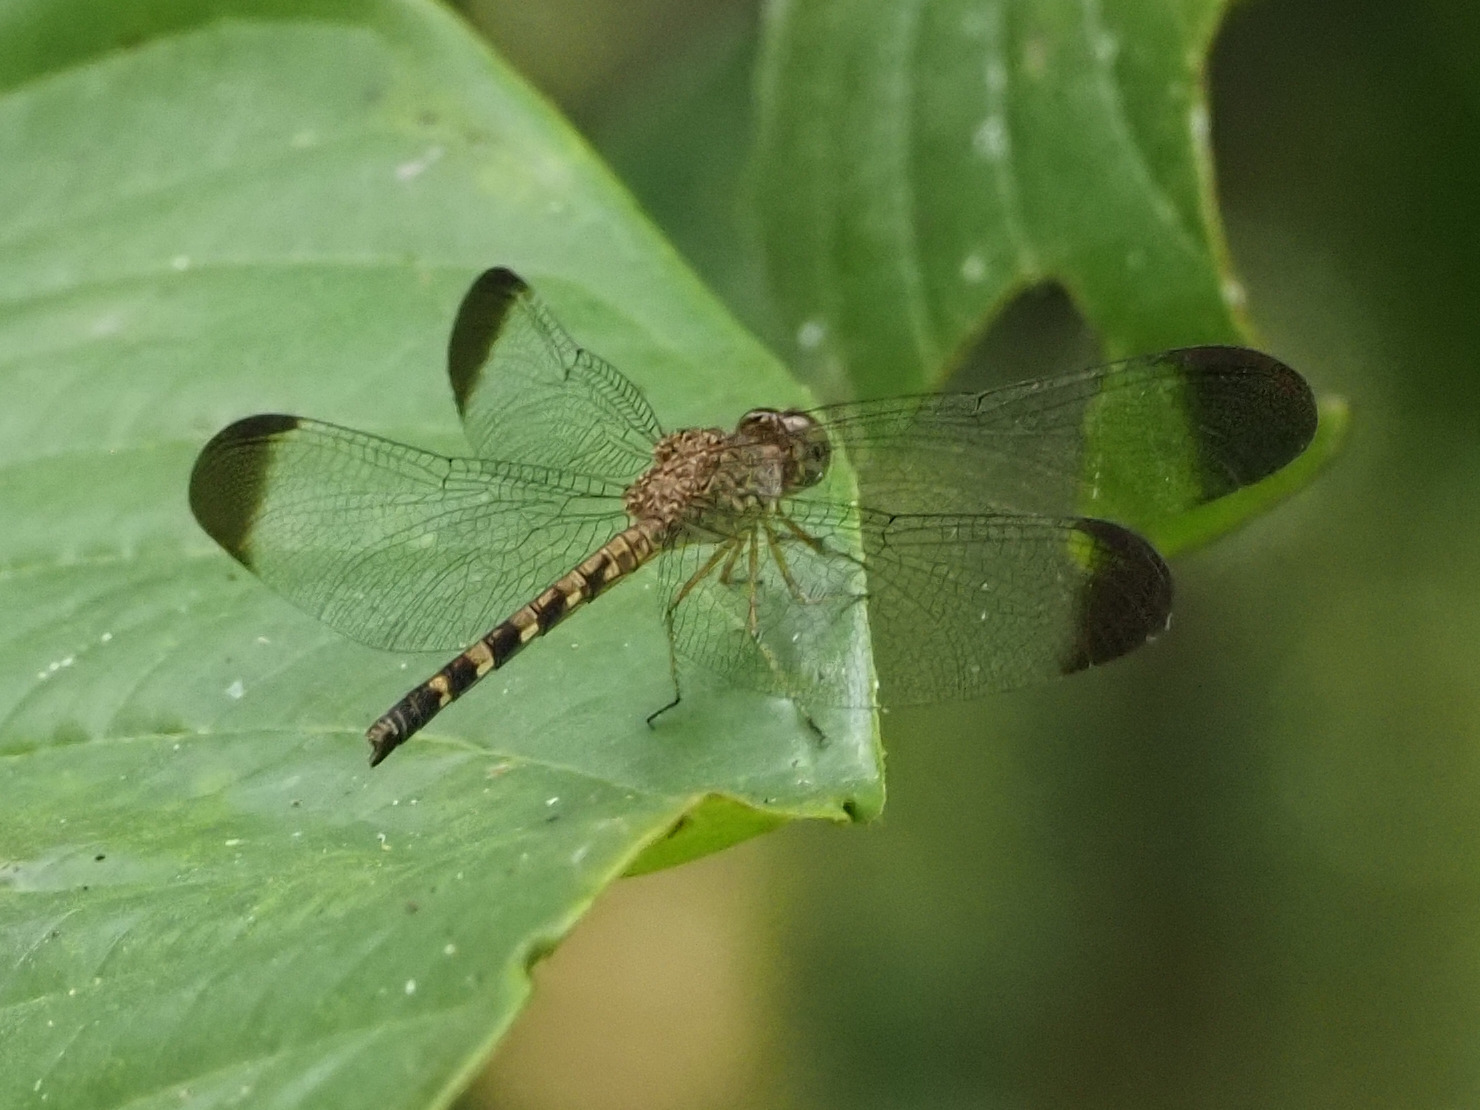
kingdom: Animalia
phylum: Arthropoda
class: Insecta
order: Odonata
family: Libellulidae
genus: Uracis
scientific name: Uracis imbuta
